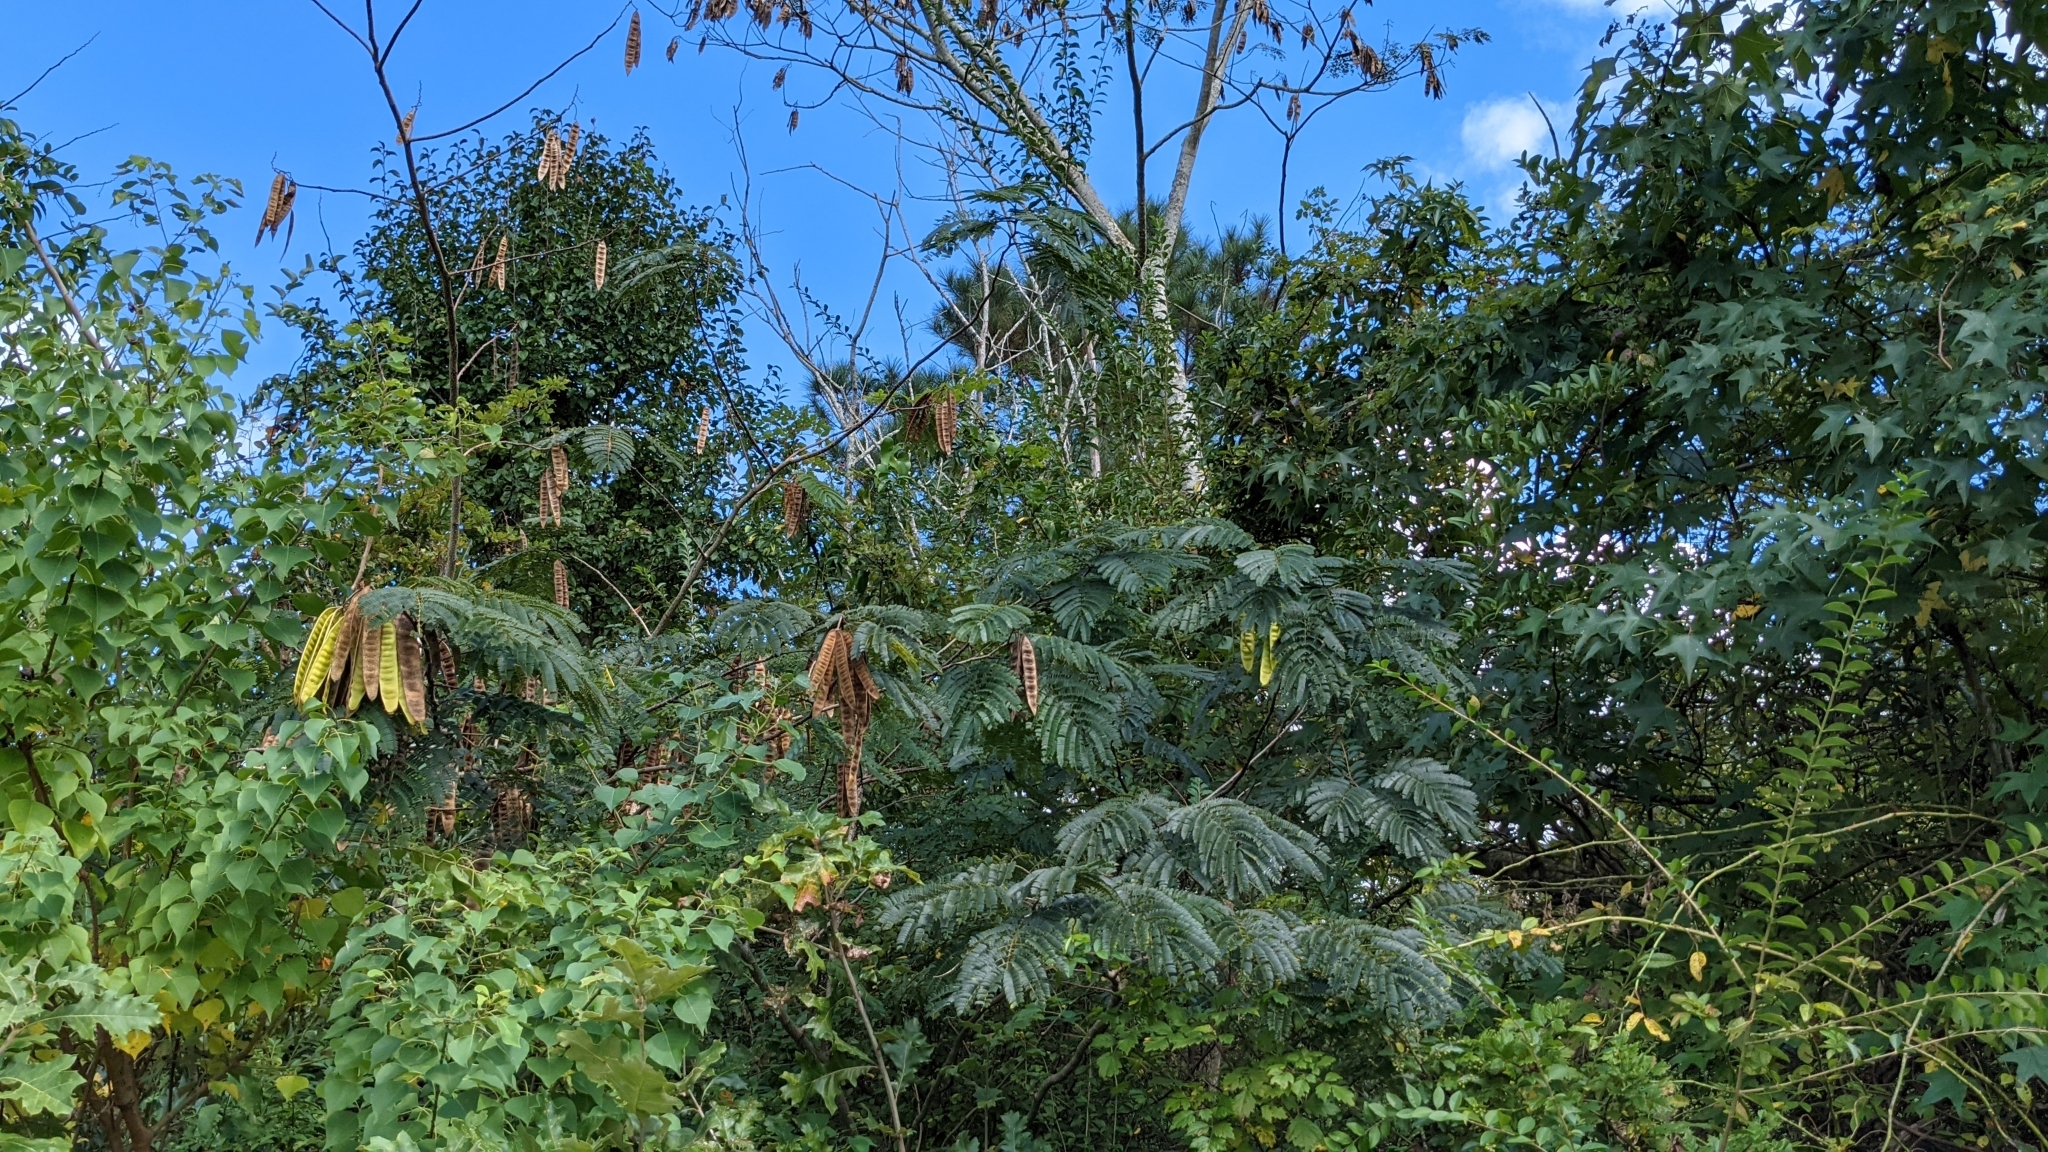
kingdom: Plantae
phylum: Tracheophyta
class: Magnoliopsida
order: Fabales
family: Fabaceae
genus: Albizia
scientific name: Albizia julibrissin
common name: Silktree
